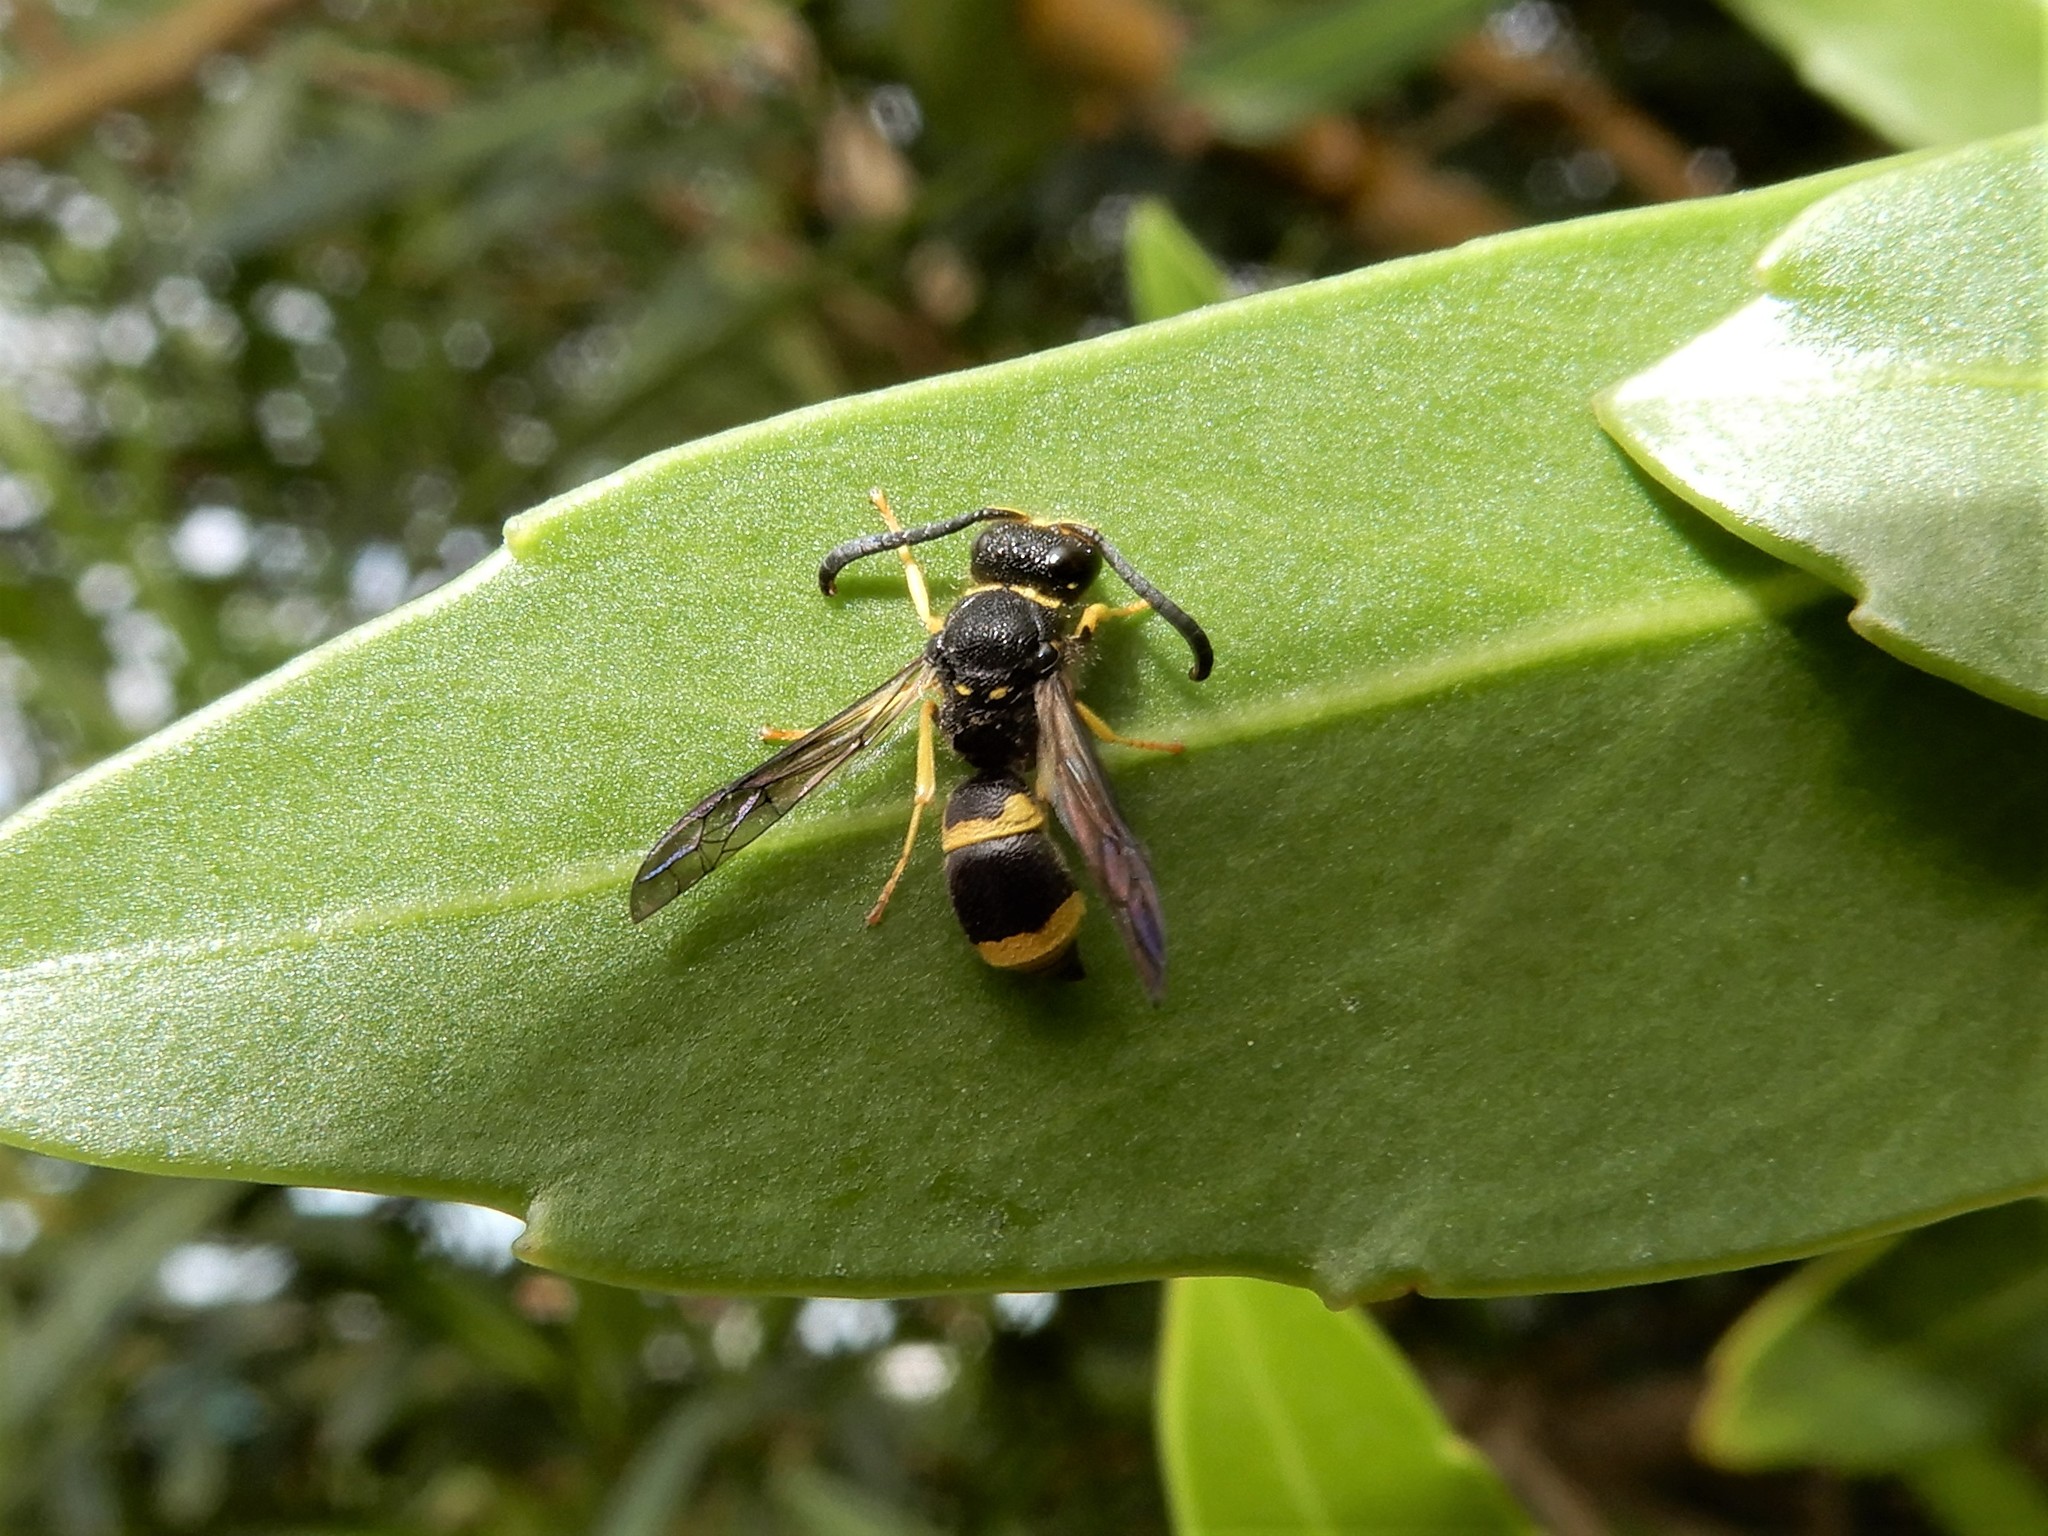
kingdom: Animalia
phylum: Arthropoda
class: Insecta
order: Hymenoptera
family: Vespidae
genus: Ancistrocerus
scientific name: Ancistrocerus gazella
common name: European tube wasp
